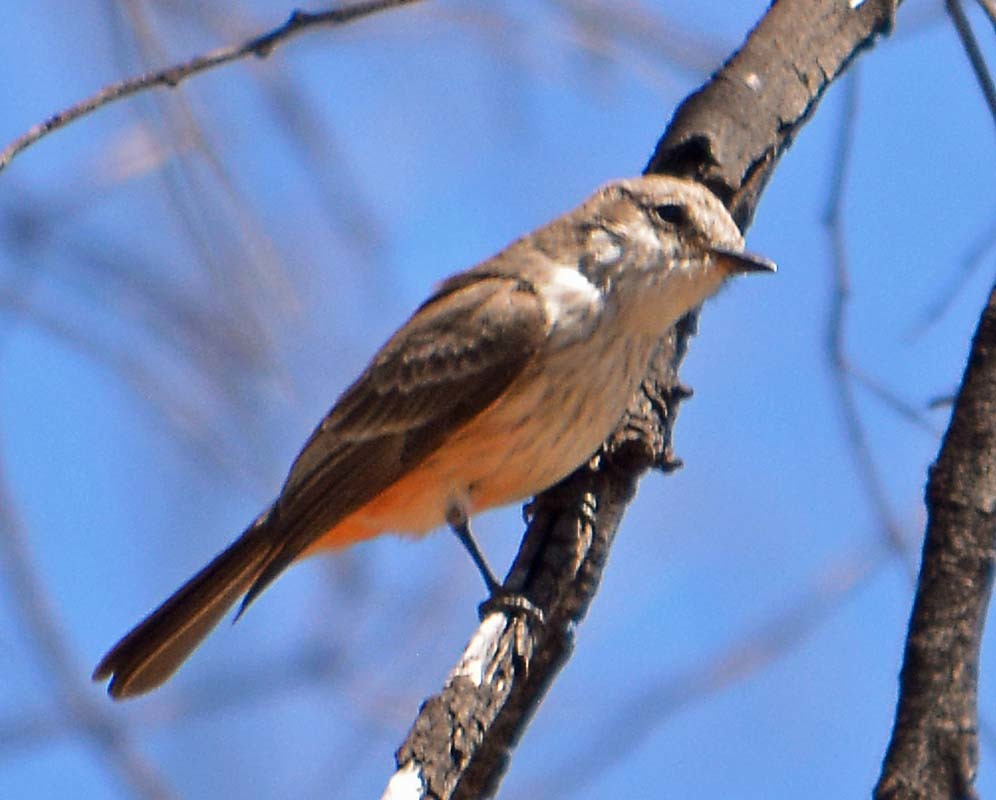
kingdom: Animalia
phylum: Chordata
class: Aves
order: Passeriformes
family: Tyrannidae
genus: Pyrocephalus
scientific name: Pyrocephalus rubinus
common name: Vermilion flycatcher
